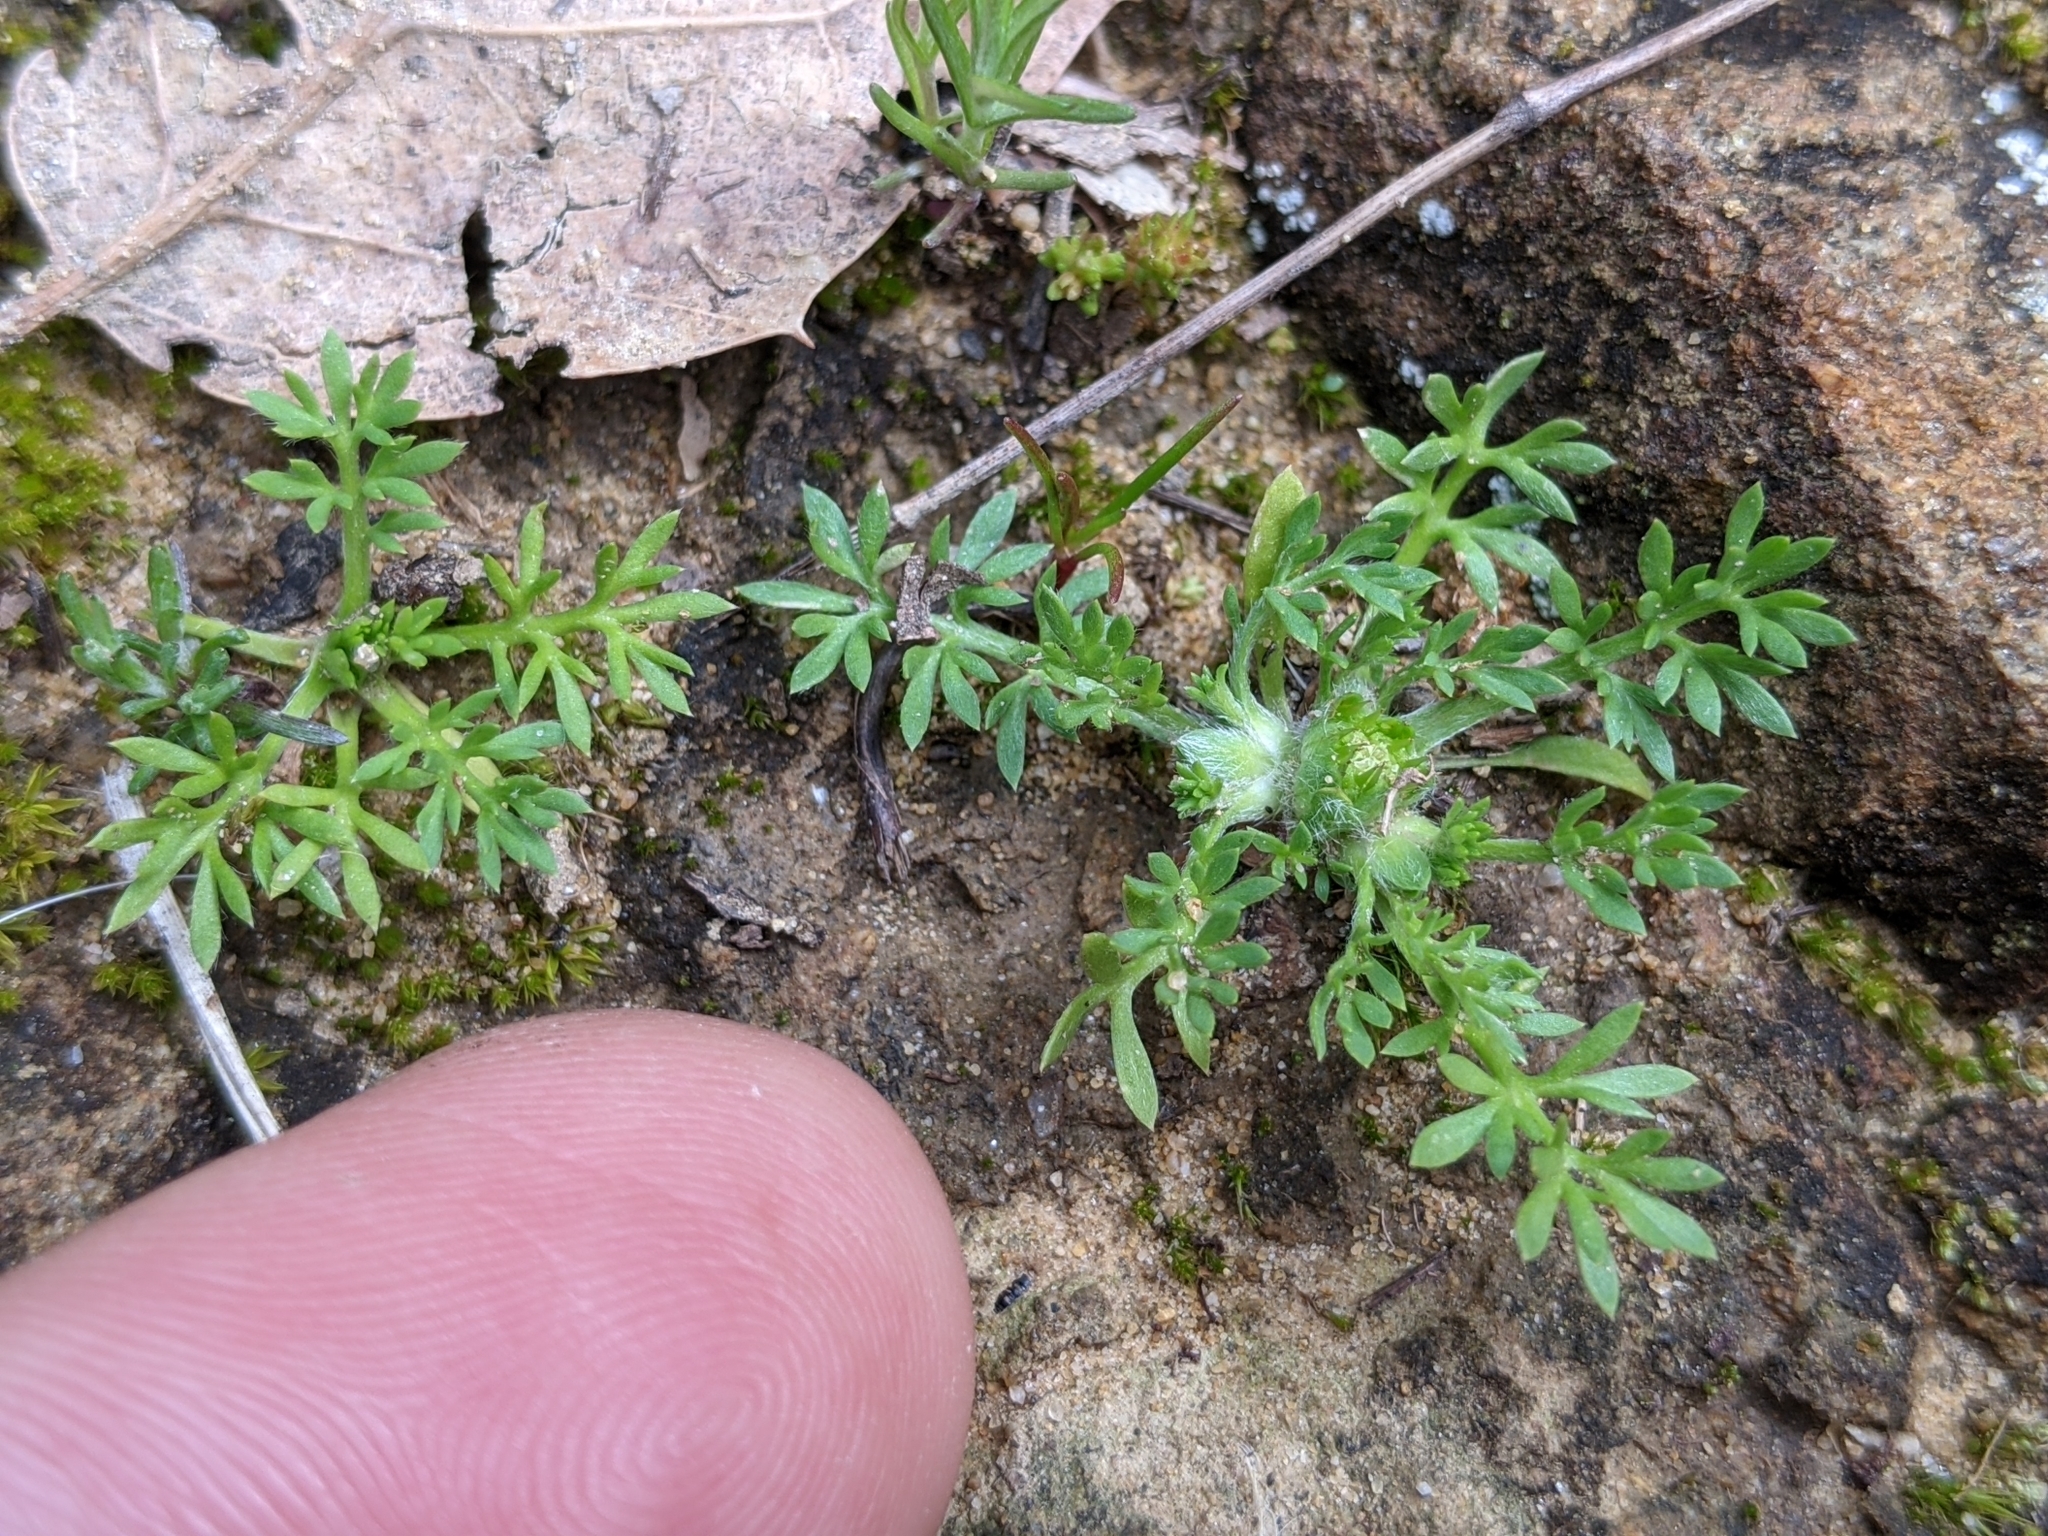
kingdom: Plantae
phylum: Tracheophyta
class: Magnoliopsida
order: Asterales
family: Asteraceae
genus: Soliva
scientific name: Soliva sessilis
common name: Field burrweed
